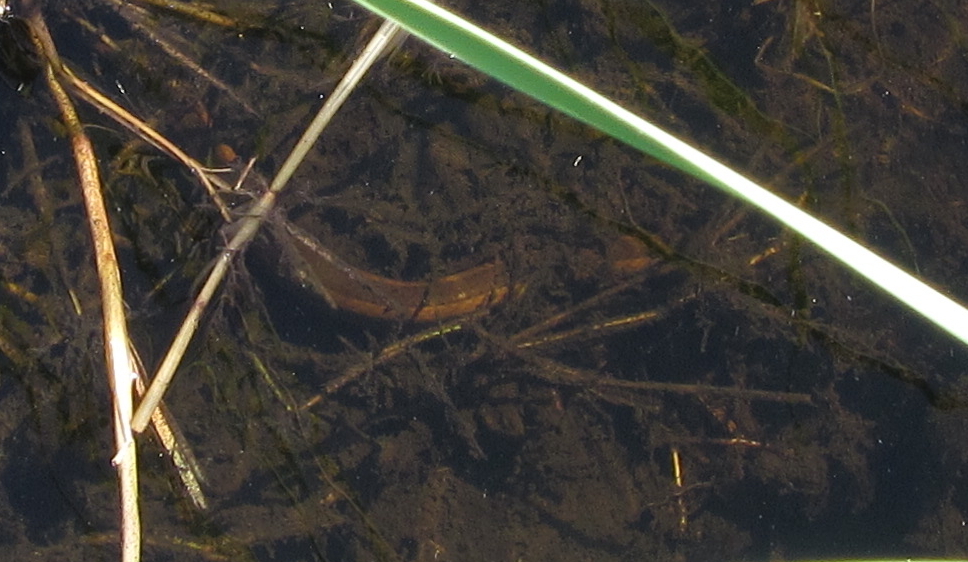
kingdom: Animalia
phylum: Chordata
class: Squamata
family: Colubridae
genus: Natriciteres
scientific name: Natriciteres olivacea
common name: Olive marsh snake
